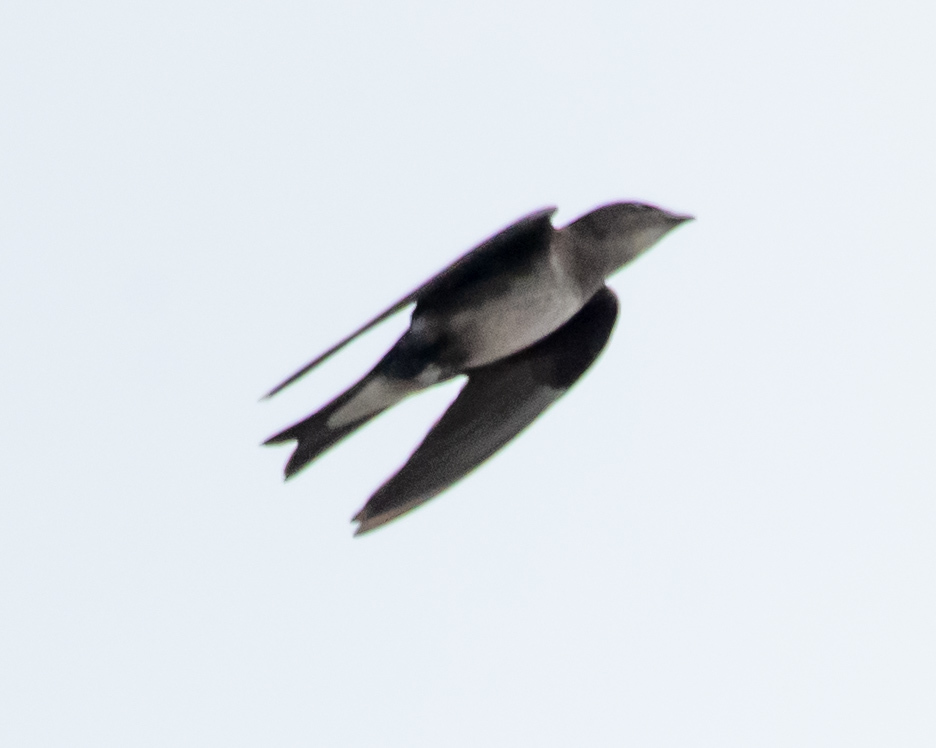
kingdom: Animalia
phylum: Chordata
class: Aves
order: Passeriformes
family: Hirundinidae
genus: Progne
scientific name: Progne chalybea
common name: Grey-breasted martin
